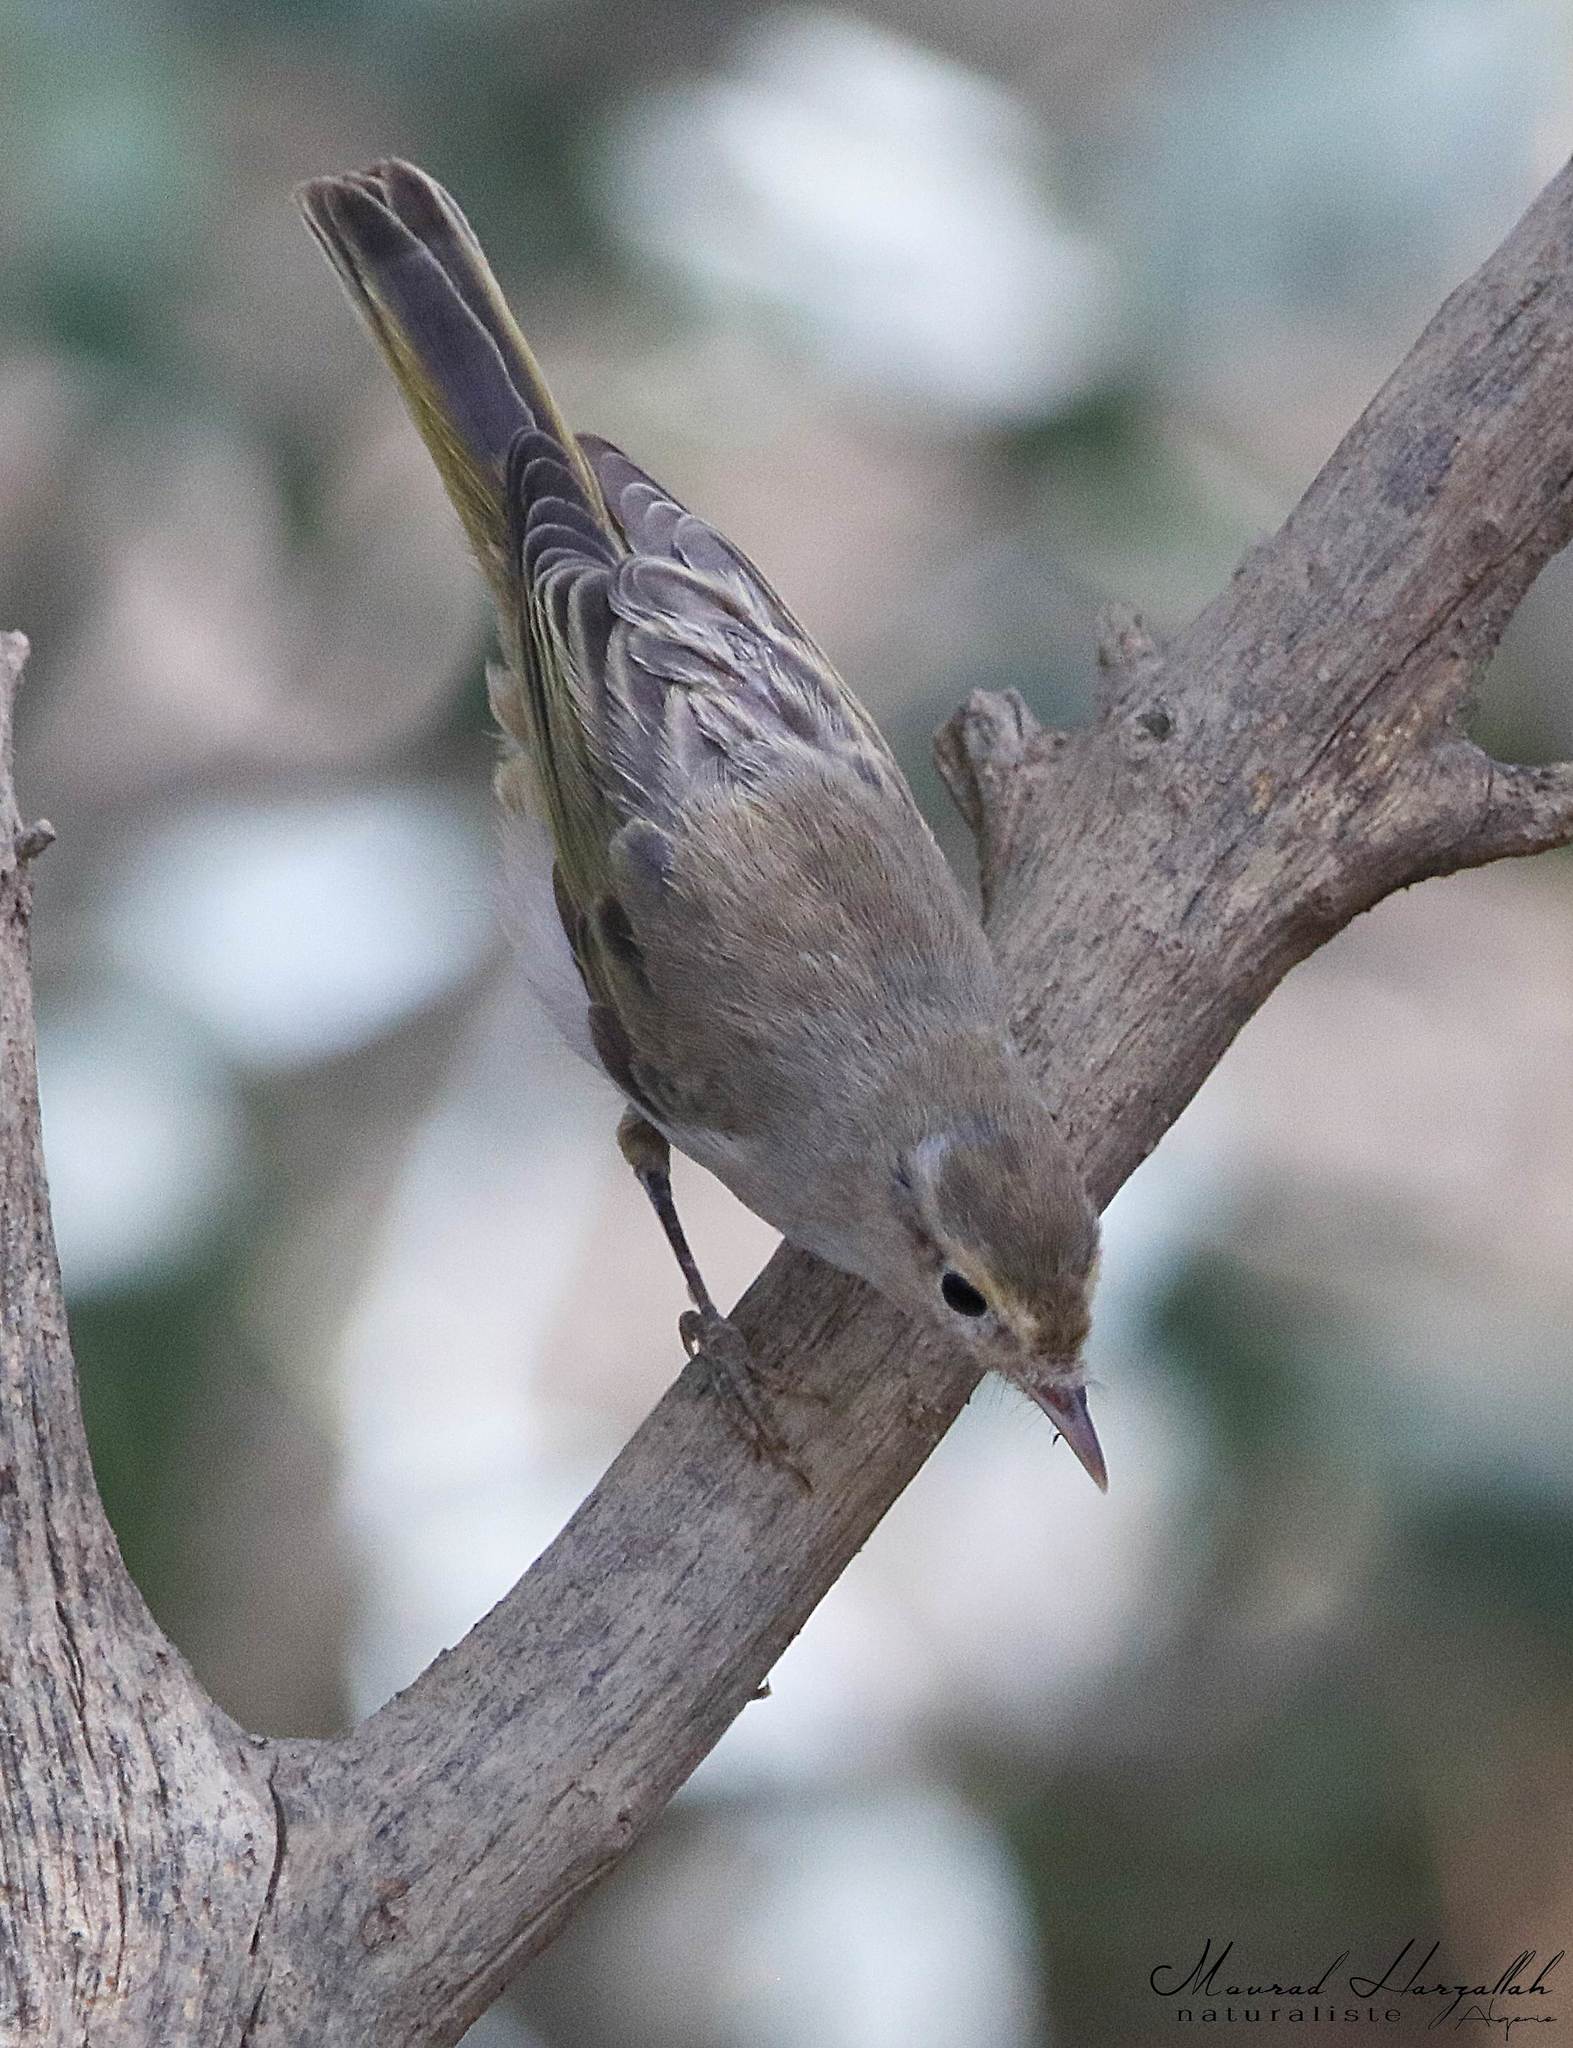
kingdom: Animalia
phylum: Chordata
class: Aves
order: Passeriformes
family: Phylloscopidae
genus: Phylloscopus
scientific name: Phylloscopus bonelli
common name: Western bonelli's warbler
